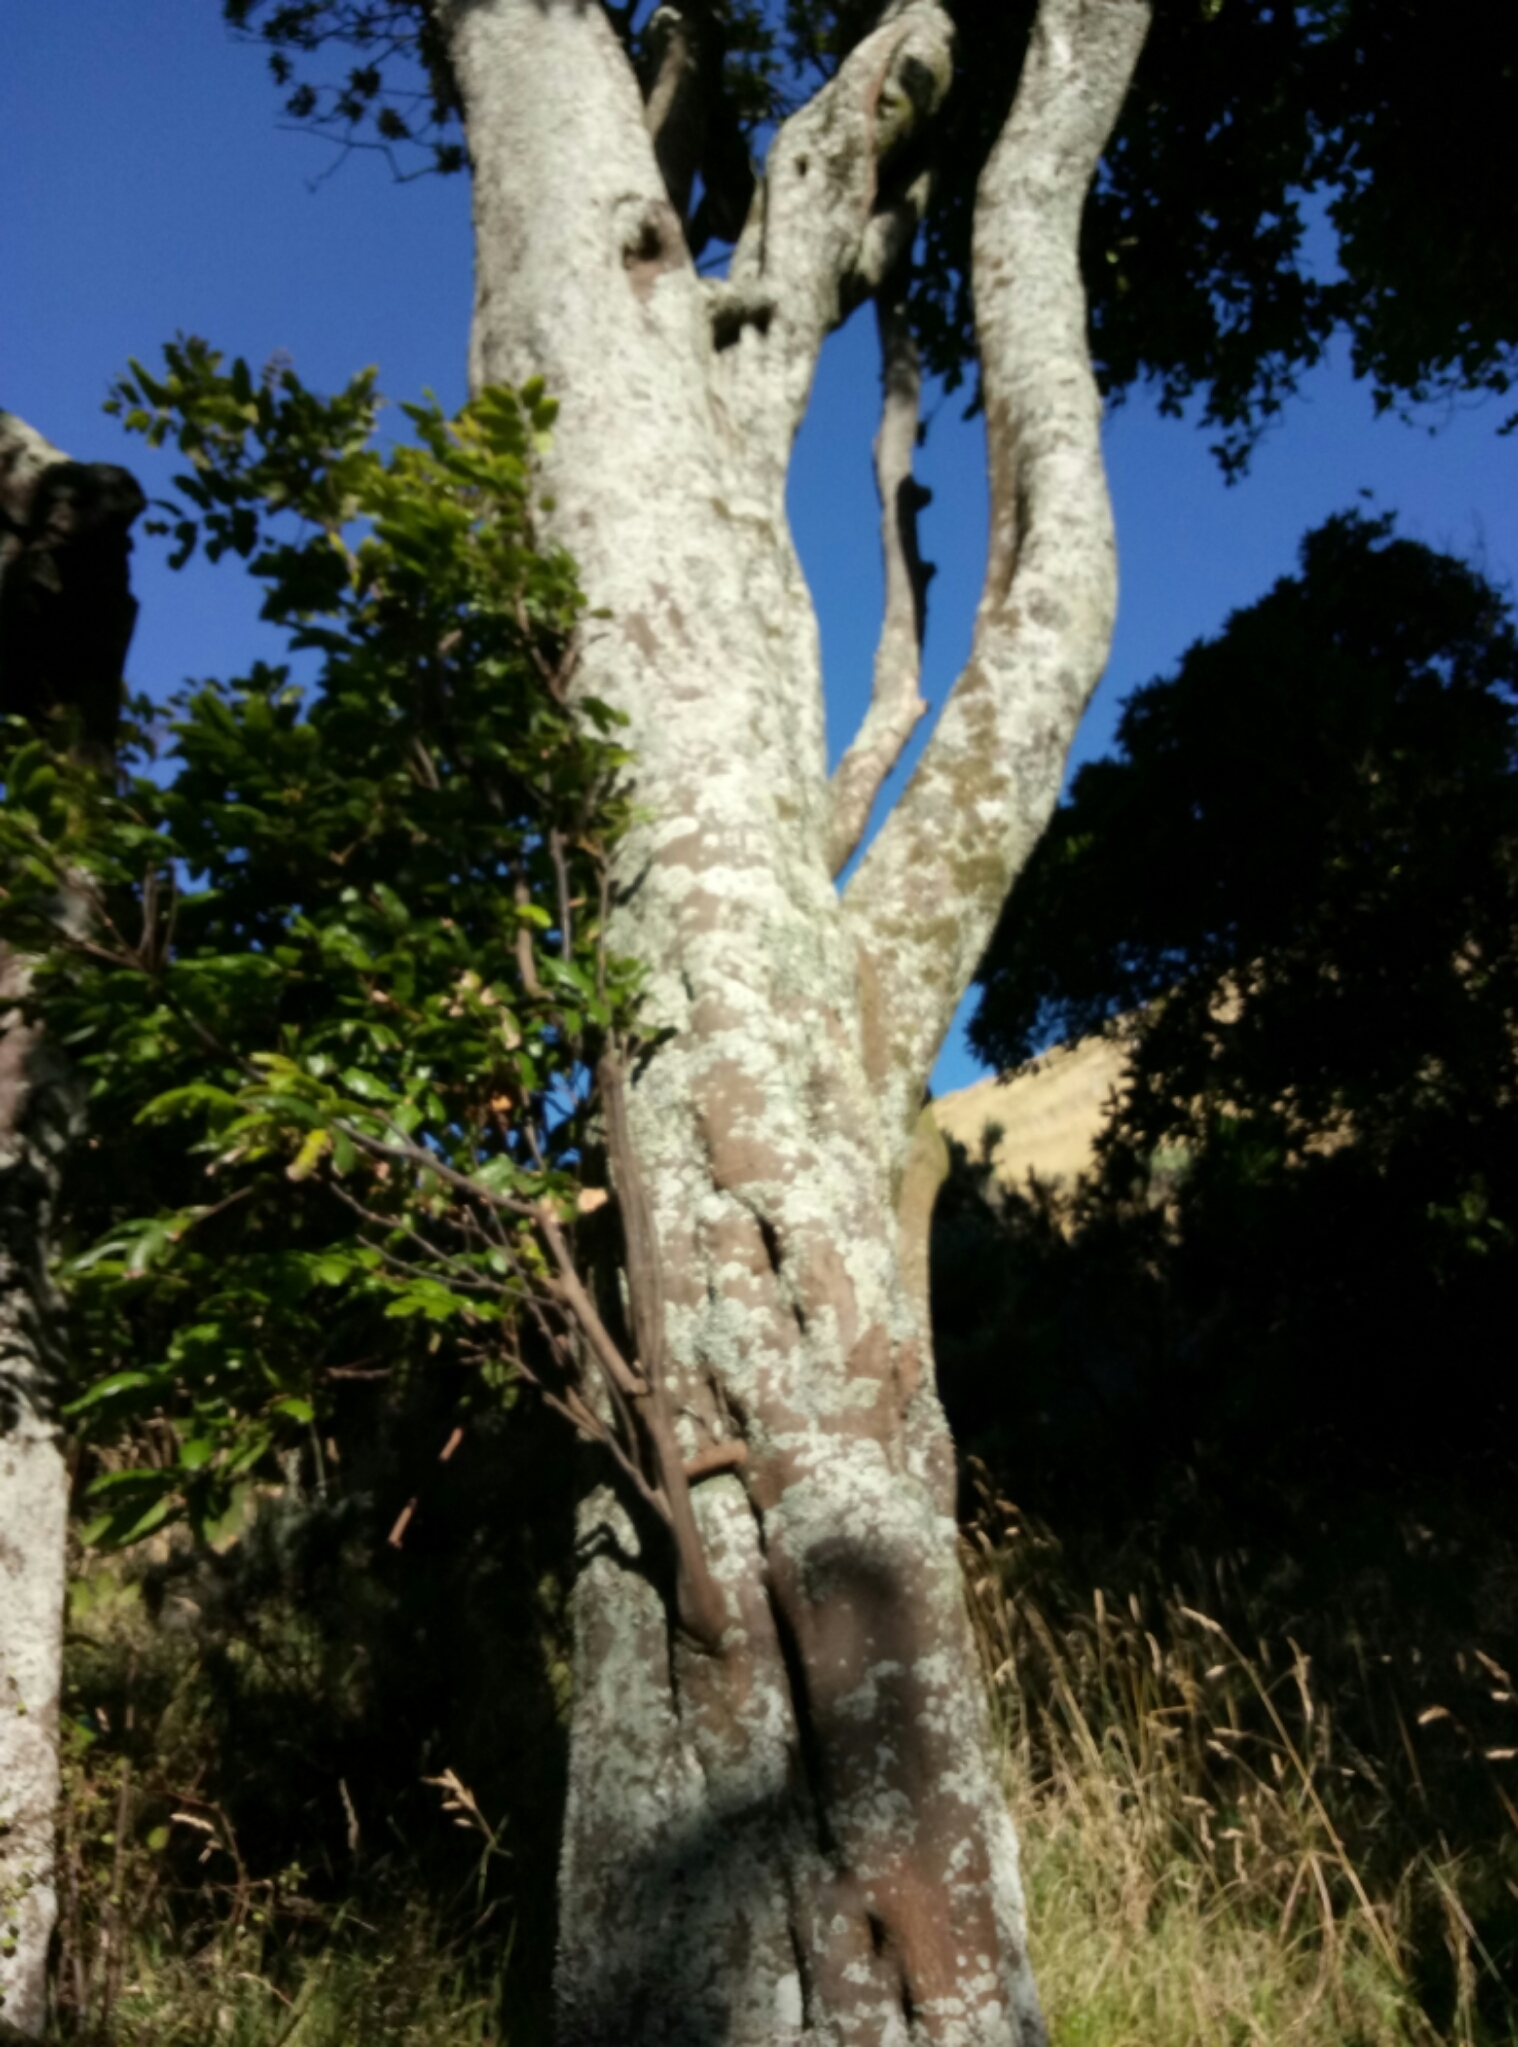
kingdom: Plantae
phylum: Tracheophyta
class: Magnoliopsida
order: Sapindales
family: Sapindaceae
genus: Alectryon
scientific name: Alectryon excelsus
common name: Three kings titoki
